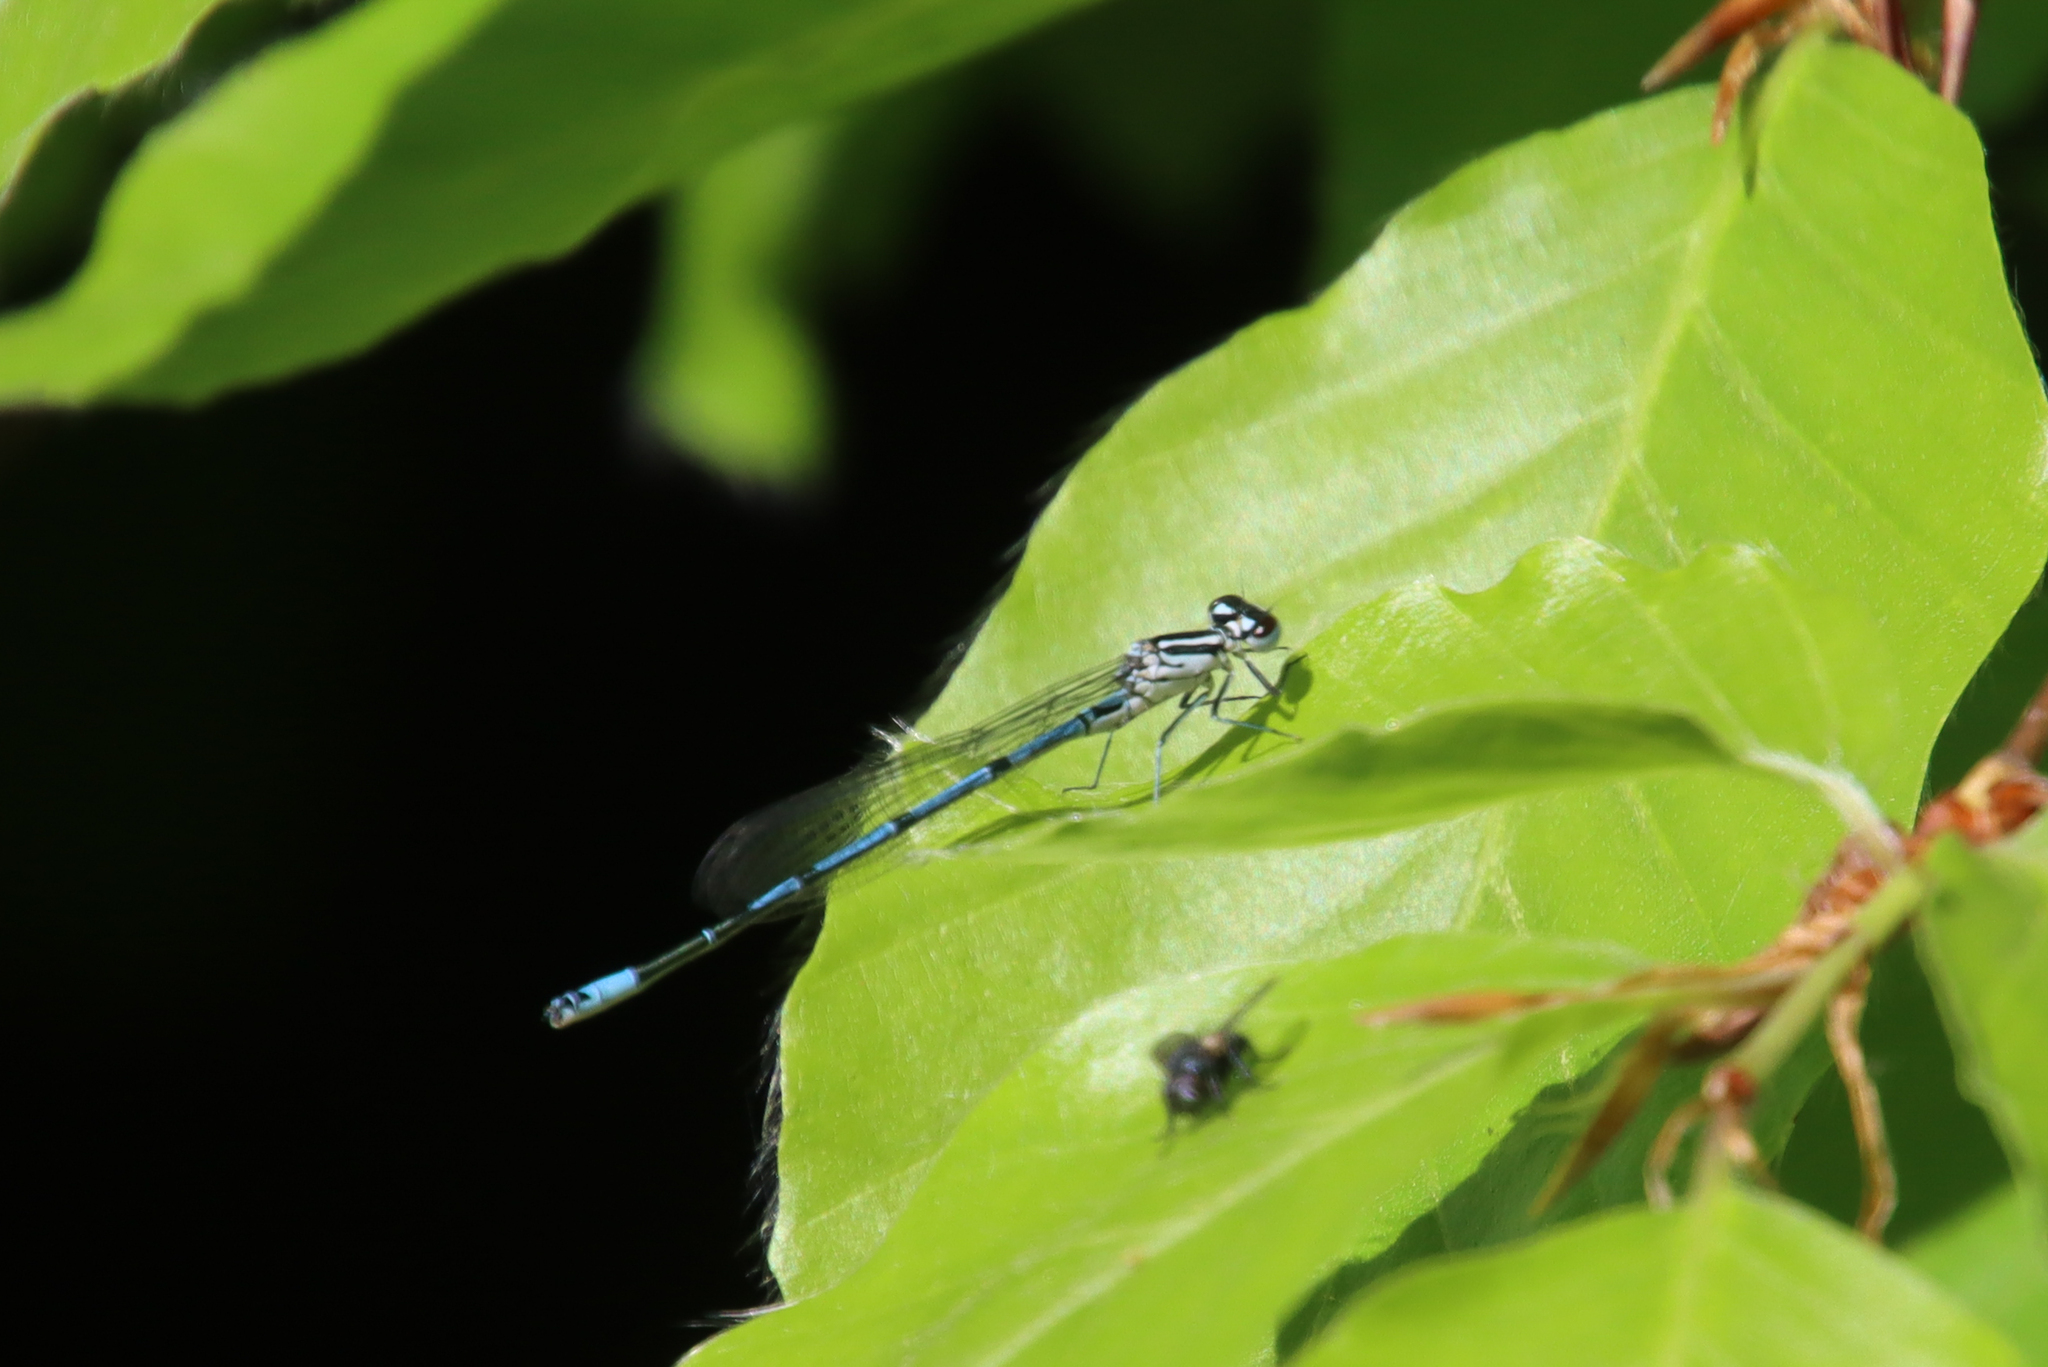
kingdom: Animalia
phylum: Arthropoda
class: Insecta
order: Odonata
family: Coenagrionidae
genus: Coenagrion
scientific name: Coenagrion puella
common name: Azure damselfly
